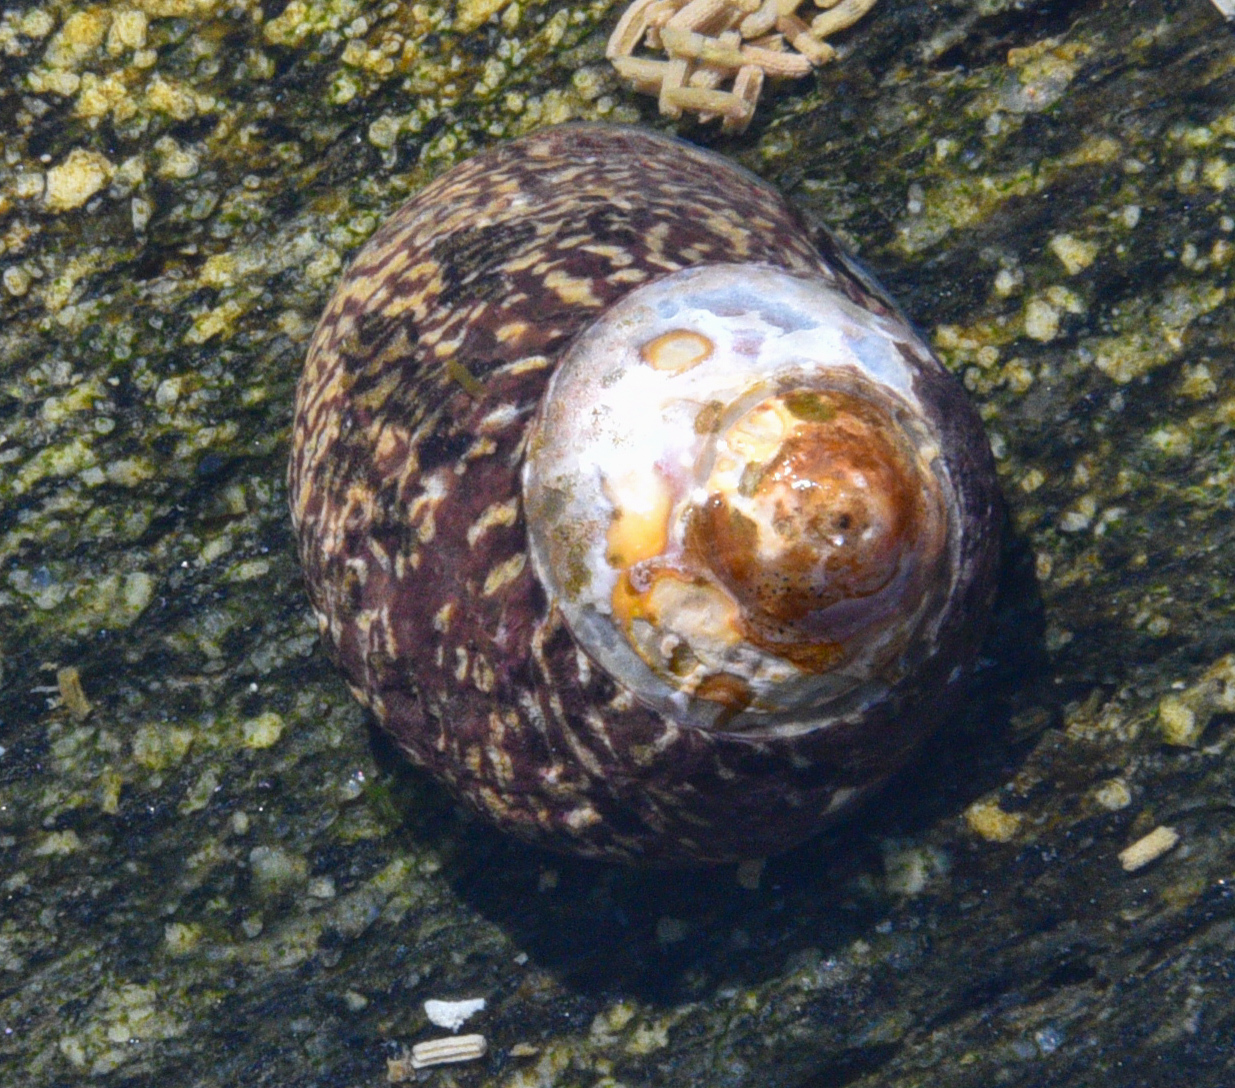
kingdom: Animalia
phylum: Mollusca
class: Gastropoda
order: Trochida
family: Trochidae
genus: Phorcus
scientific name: Phorcus lineatus
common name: Toothed top shell
